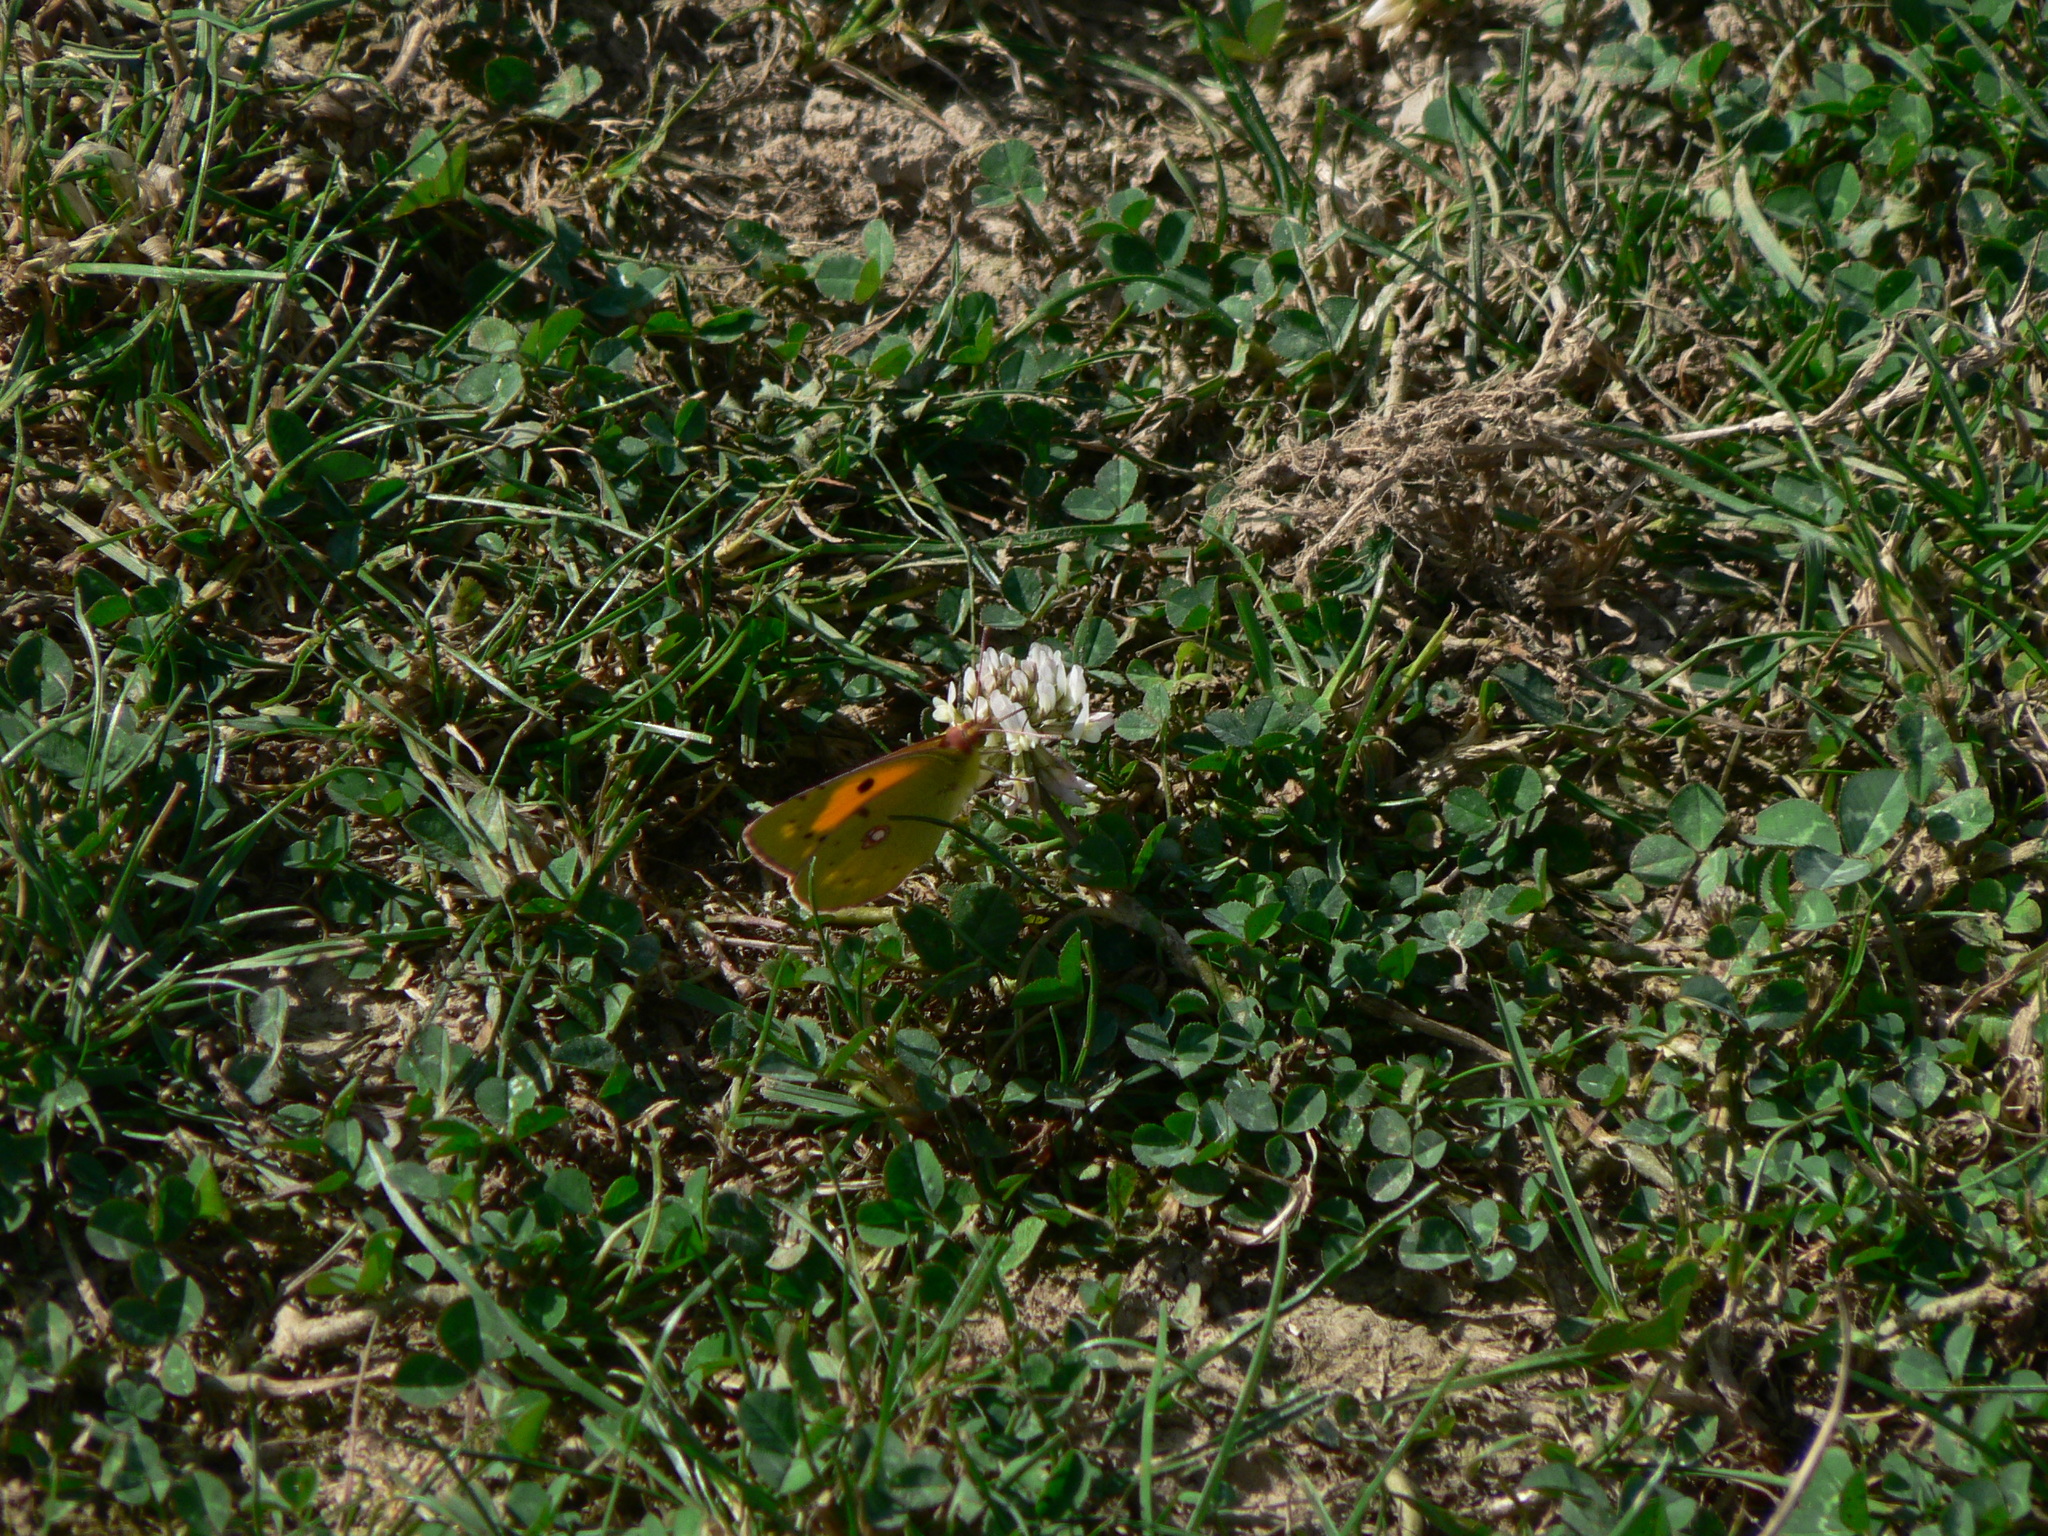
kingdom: Animalia
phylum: Arthropoda
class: Insecta
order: Lepidoptera
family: Pieridae
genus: Colias
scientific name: Colias croceus
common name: Clouded yellow
